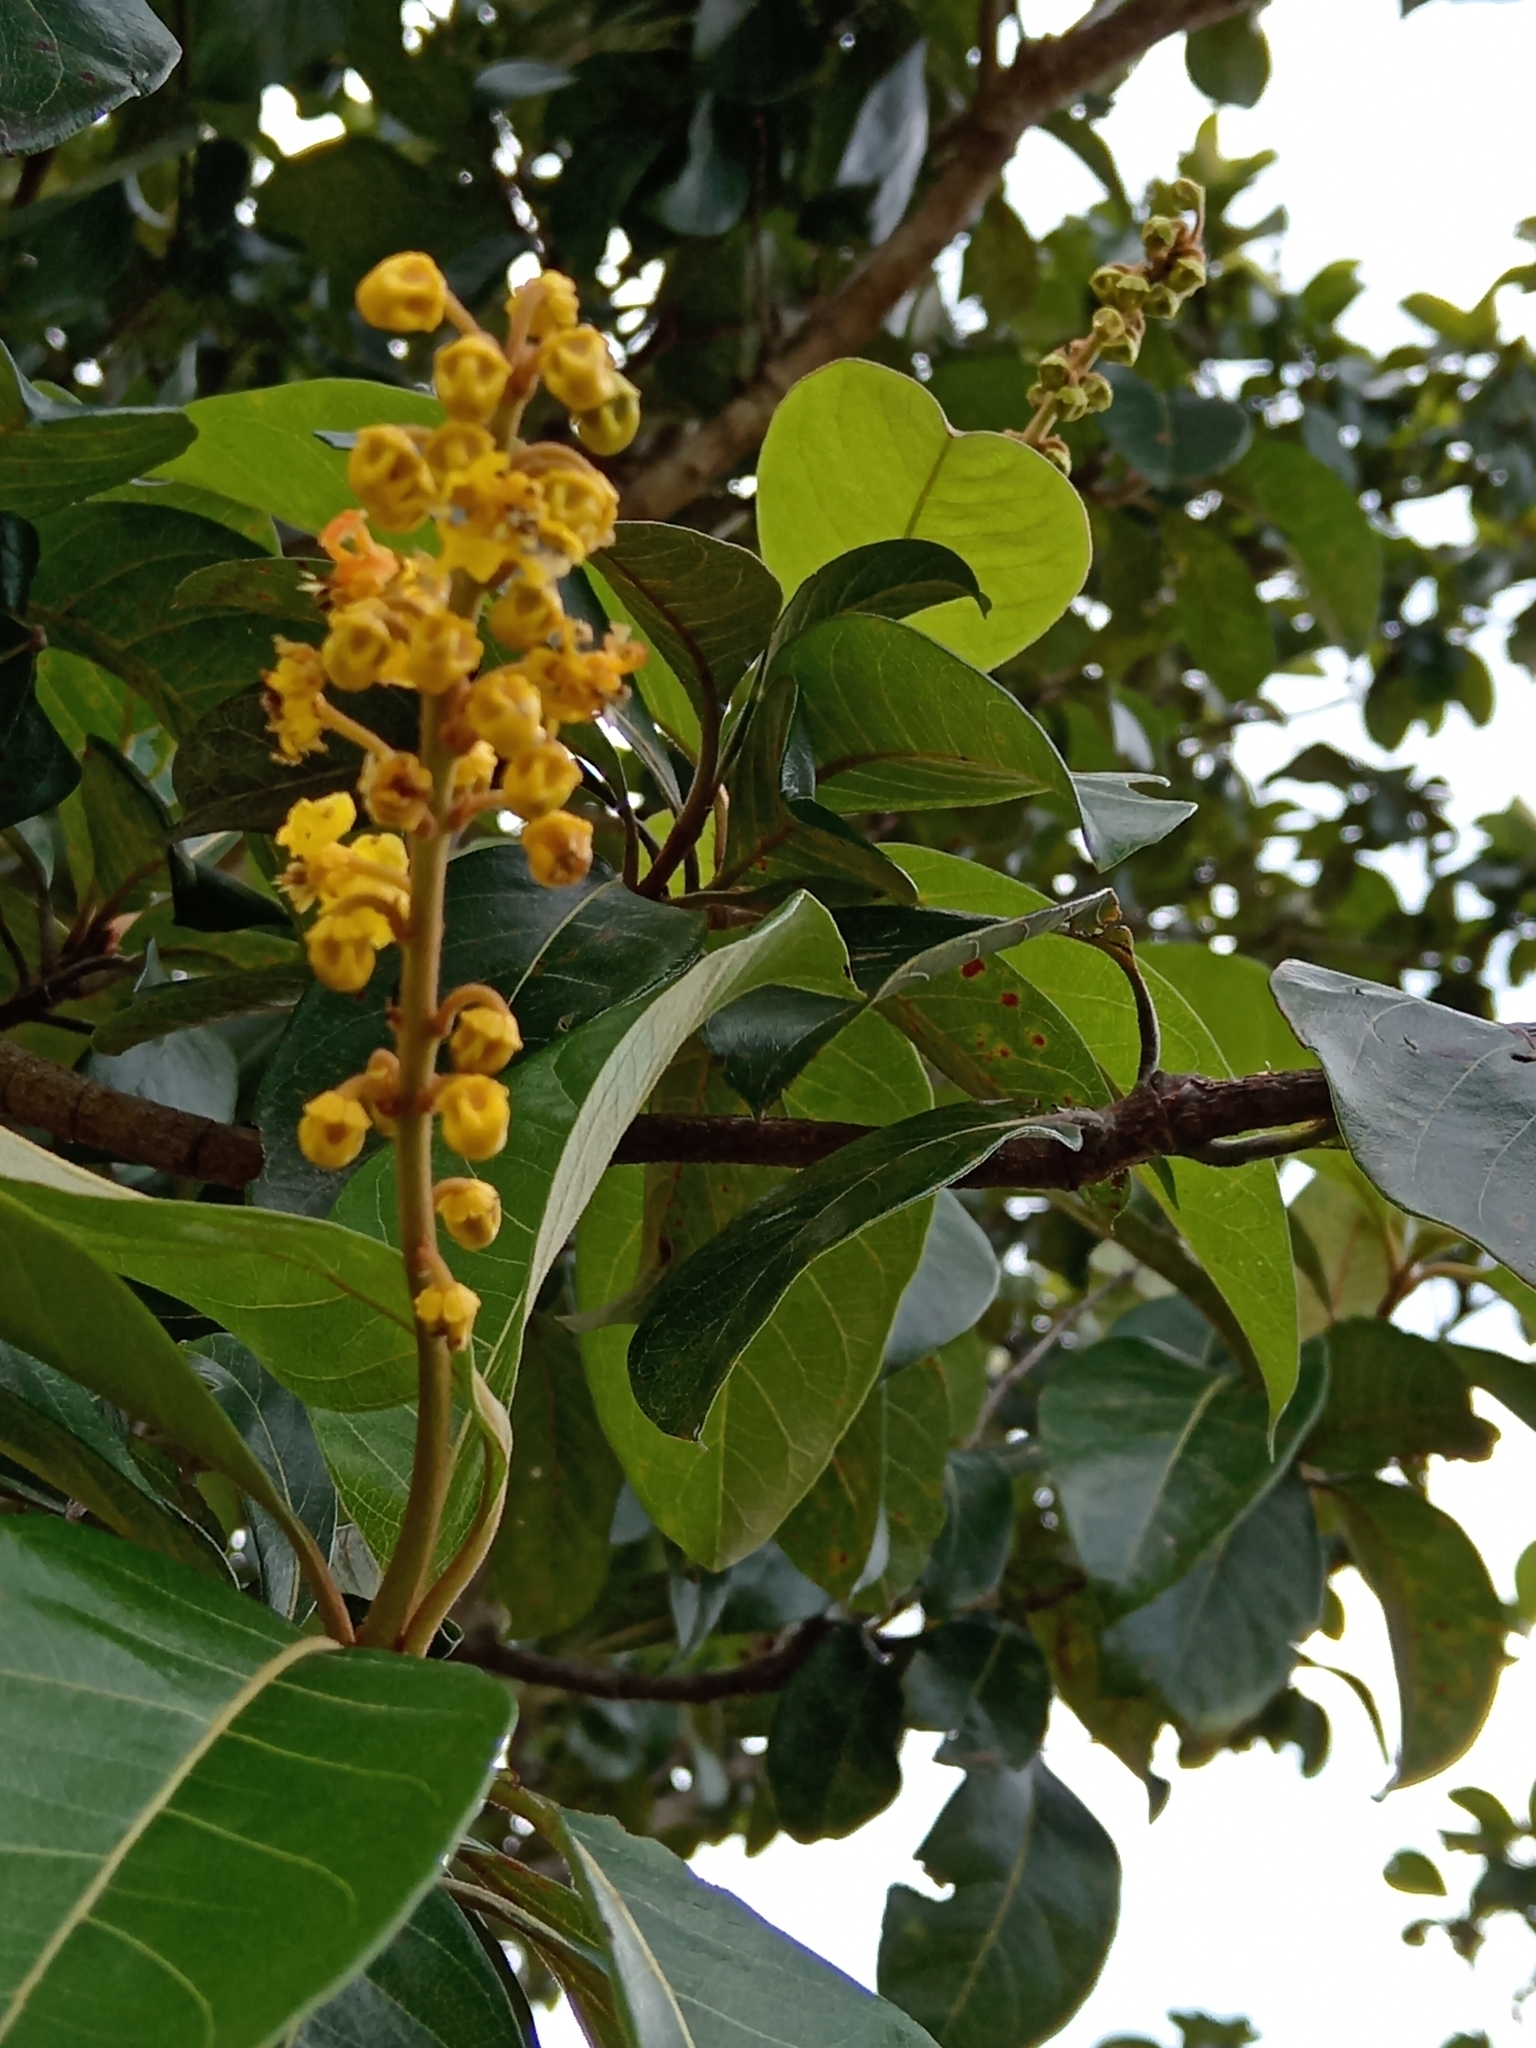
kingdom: Plantae
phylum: Tracheophyta
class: Magnoliopsida
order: Malpighiales
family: Malpighiaceae
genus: Byrsonima
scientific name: Byrsonima crassifolia
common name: Golden spoon
